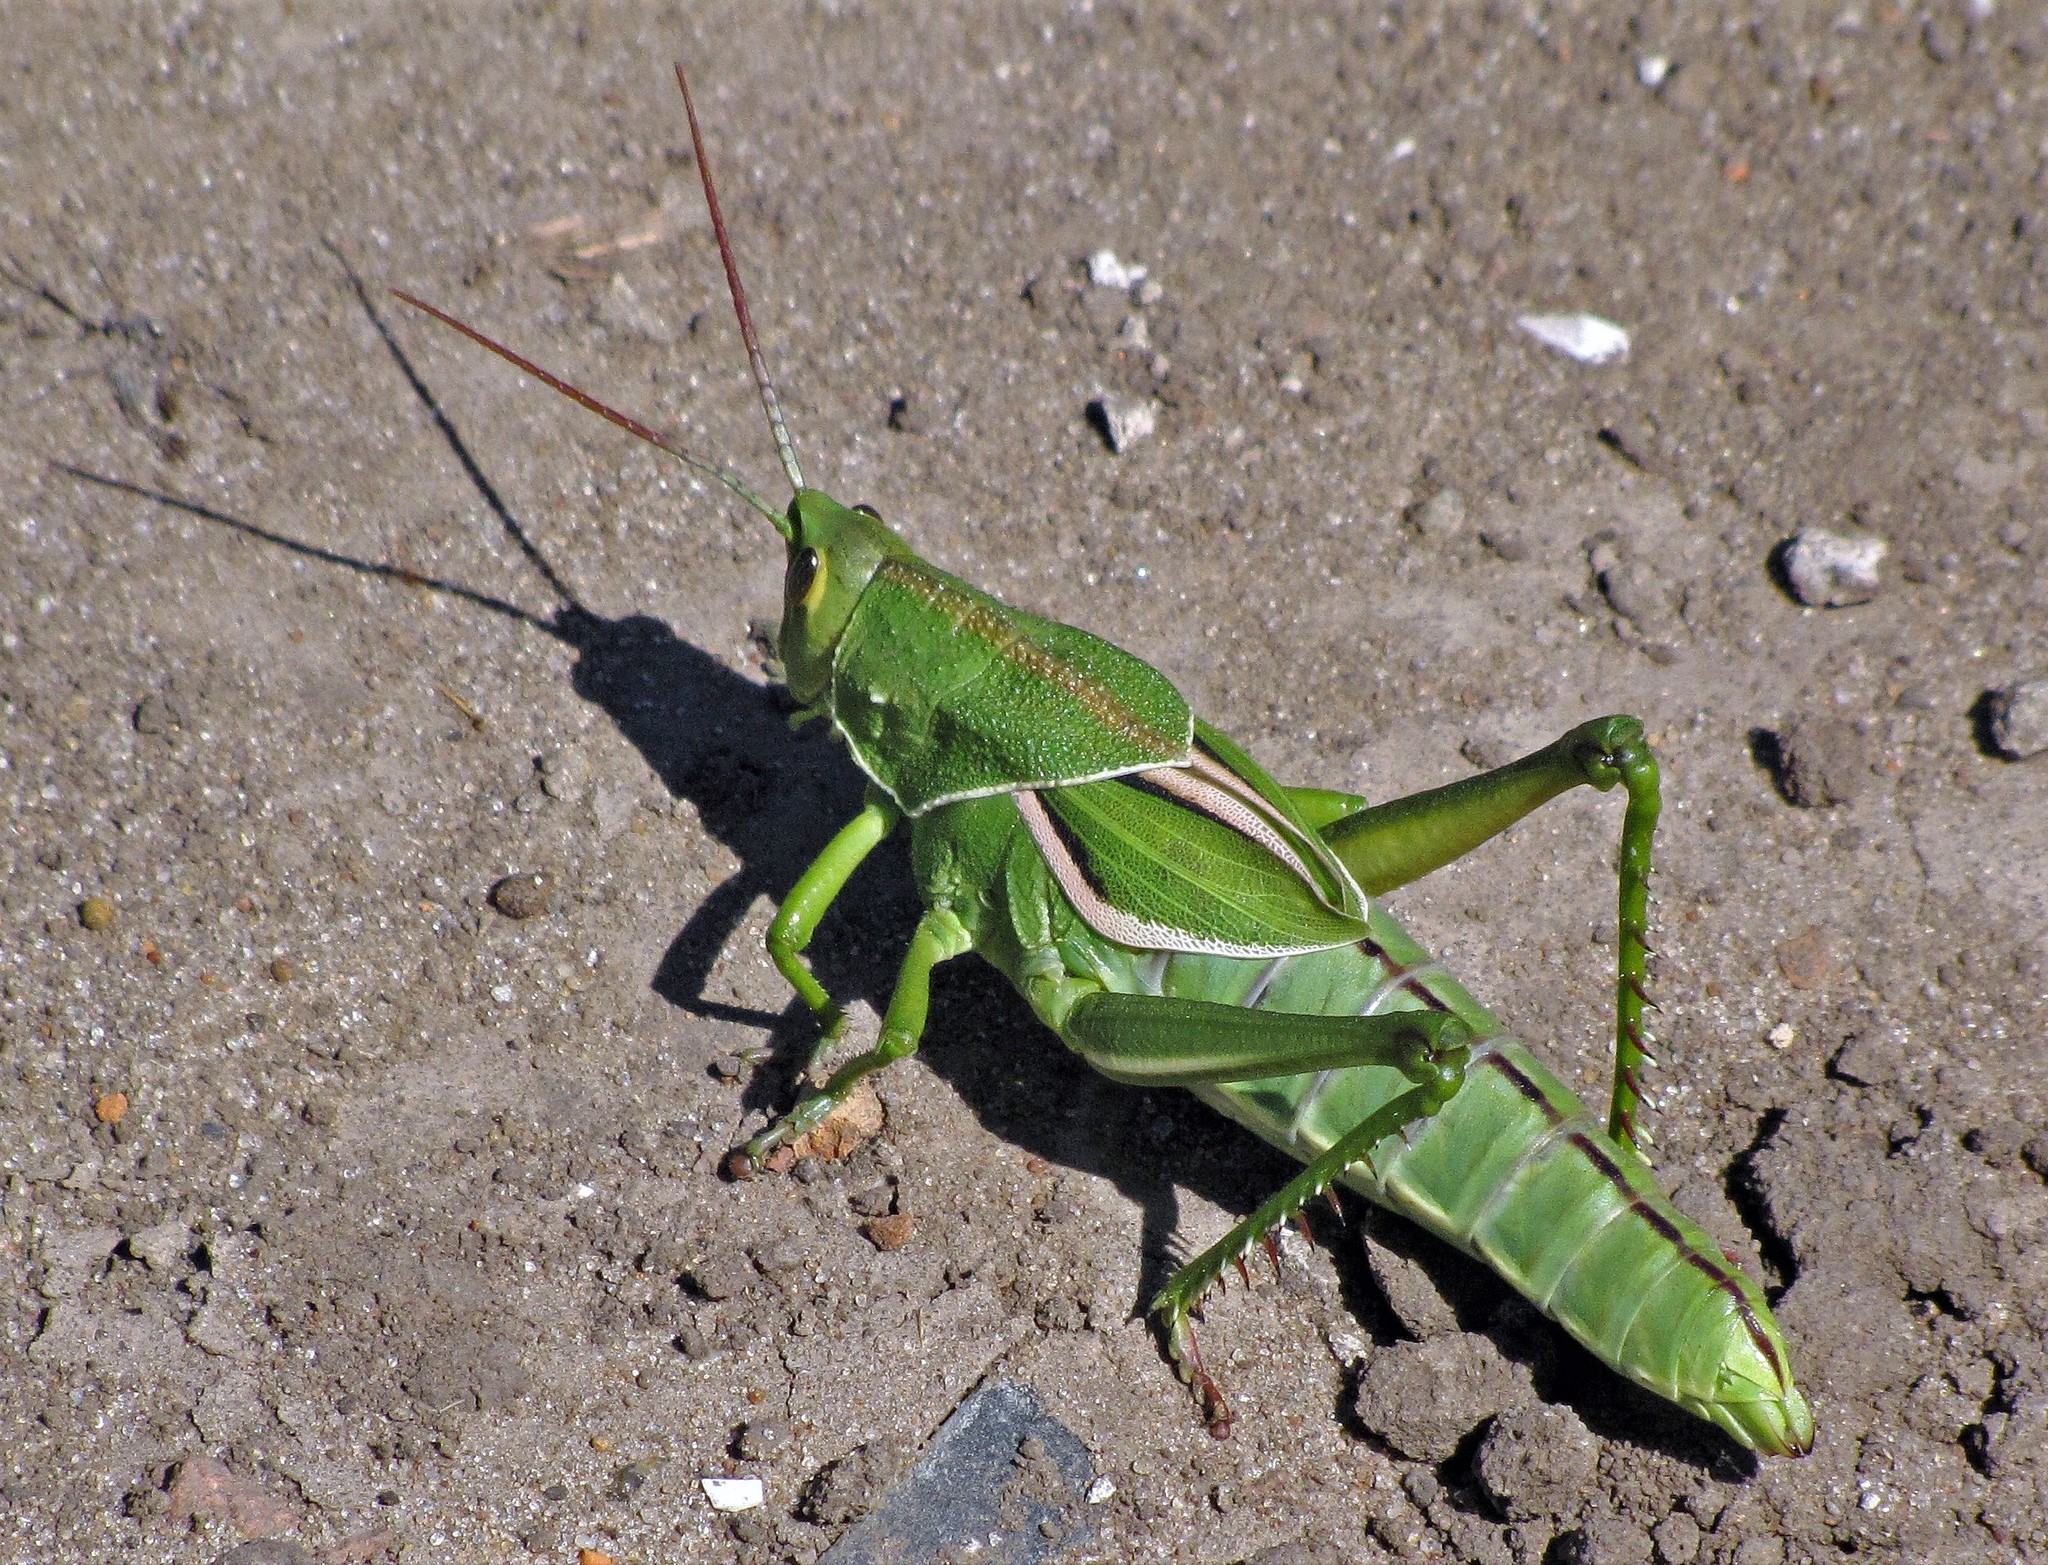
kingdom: Animalia
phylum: Arthropoda
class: Insecta
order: Orthoptera
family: Romaleidae
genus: Staleochlora
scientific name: Staleochlora viridicata
